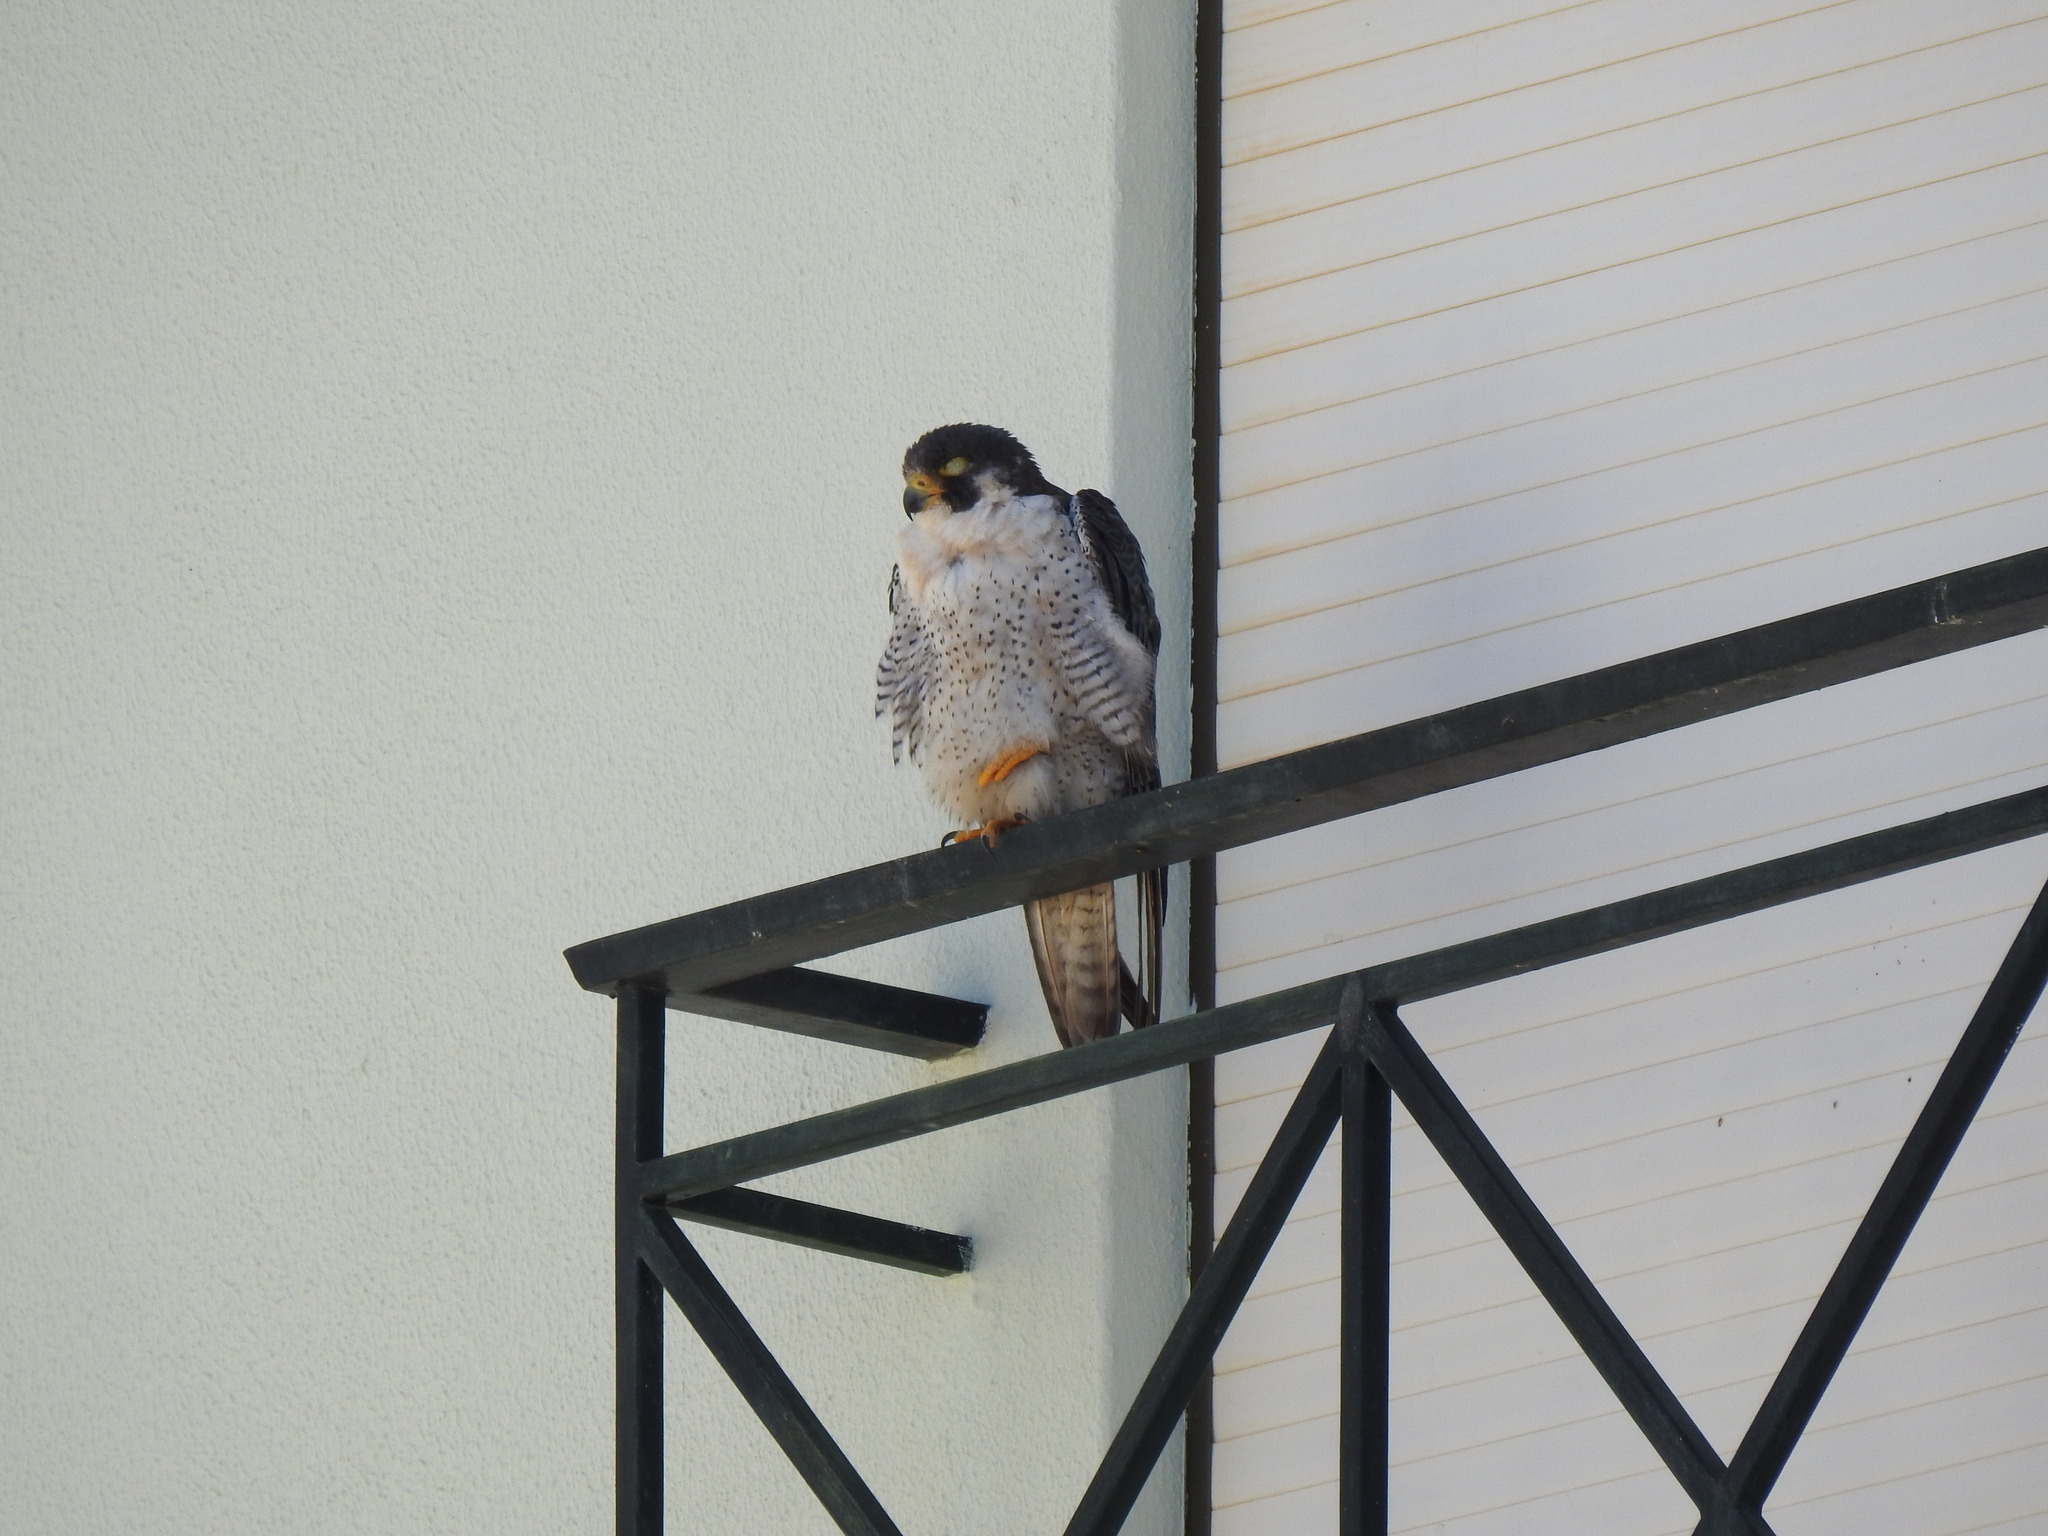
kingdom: Animalia
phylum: Chordata
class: Aves
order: Falconiformes
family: Falconidae
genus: Falco
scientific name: Falco peregrinus
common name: Peregrine falcon
